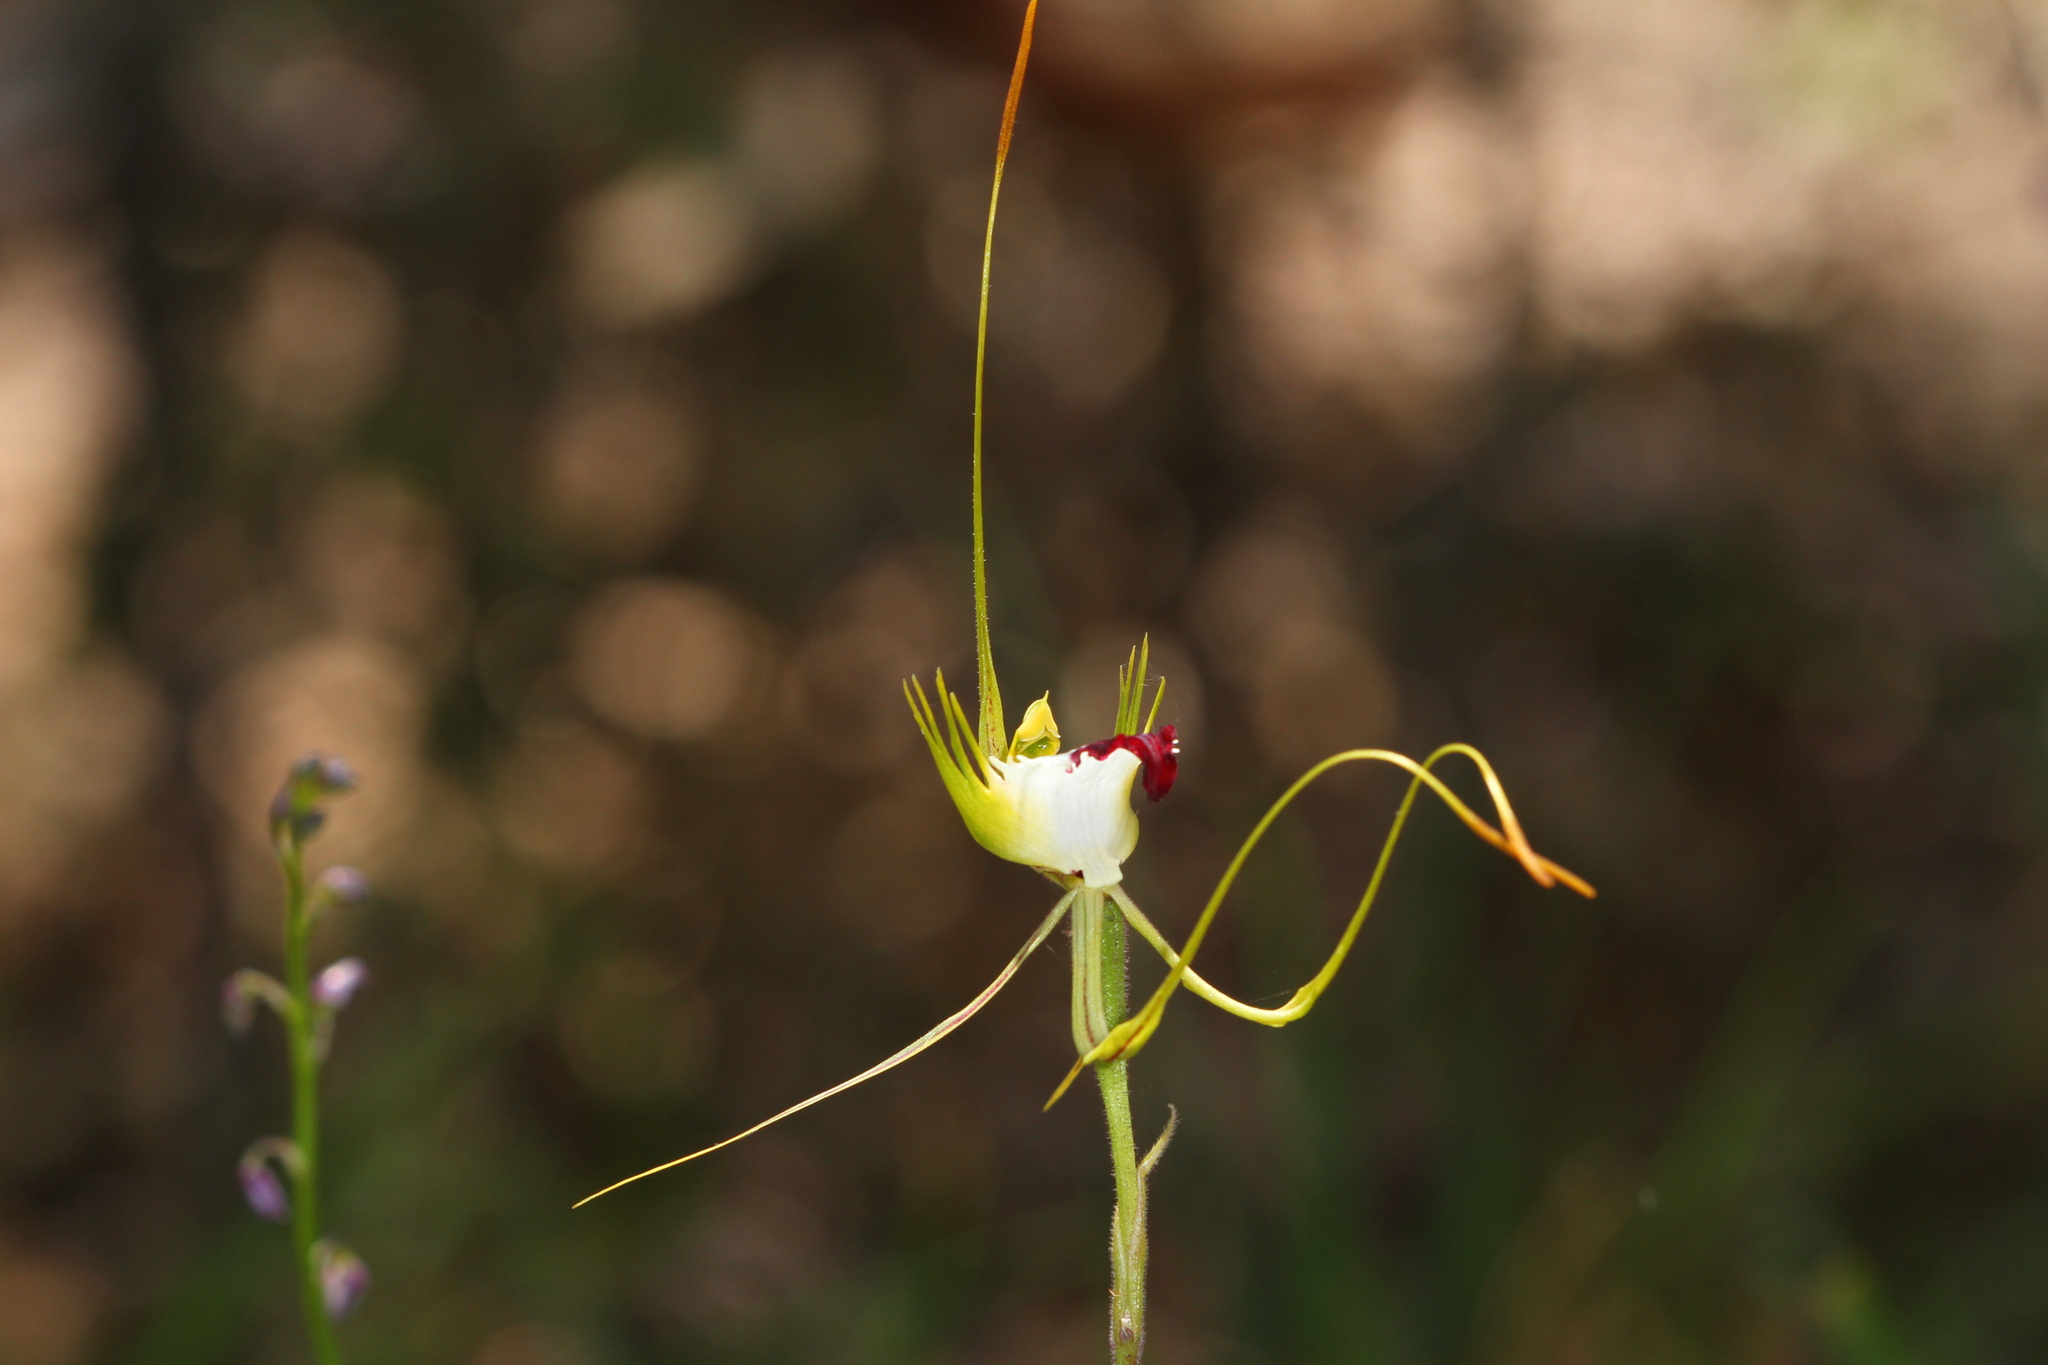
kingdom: Plantae
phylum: Tracheophyta
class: Liliopsida
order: Asparagales
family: Orchidaceae
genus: Caladenia
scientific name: Caladenia tentaculata
